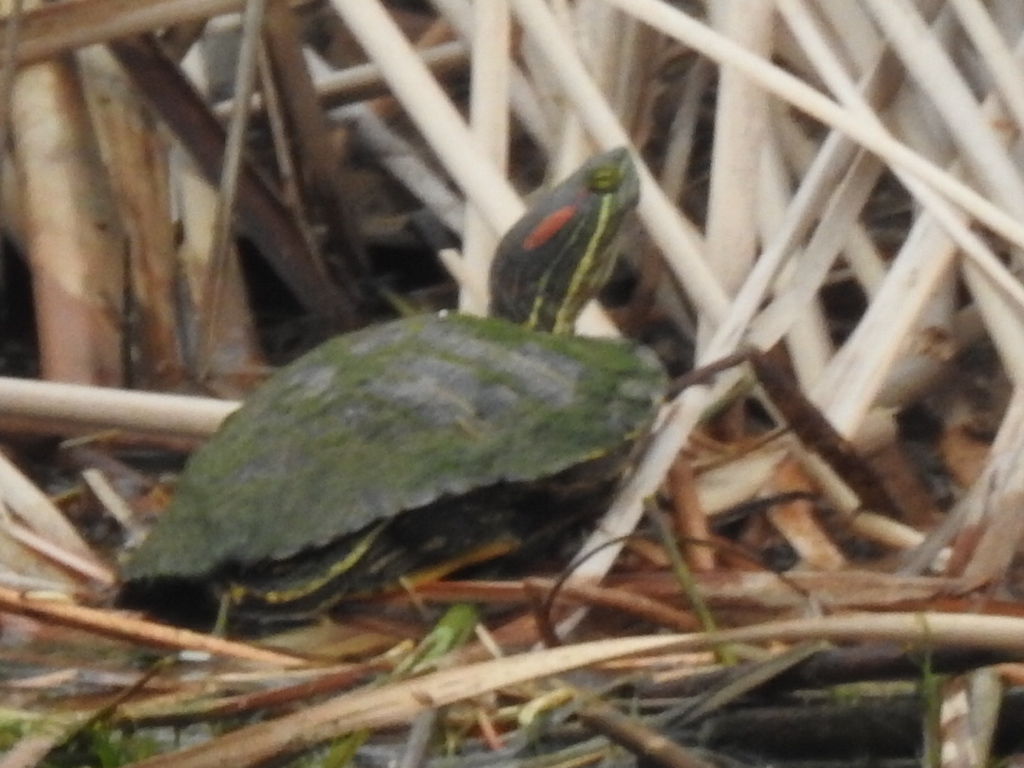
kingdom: Animalia
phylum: Chordata
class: Testudines
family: Emydidae
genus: Trachemys
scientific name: Trachemys scripta
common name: Slider
